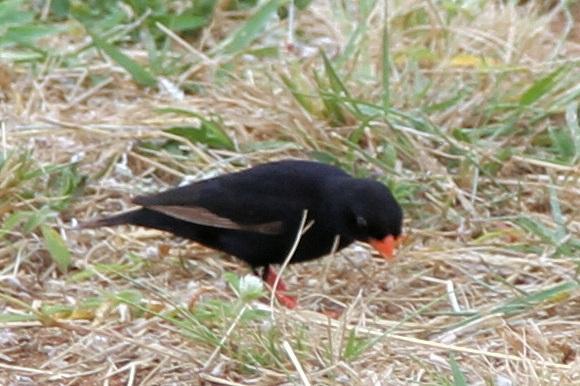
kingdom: Animalia
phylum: Chordata
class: Aves
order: Passeriformes
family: Viduidae
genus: Vidua
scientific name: Vidua chalybeata
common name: Village indigobird
